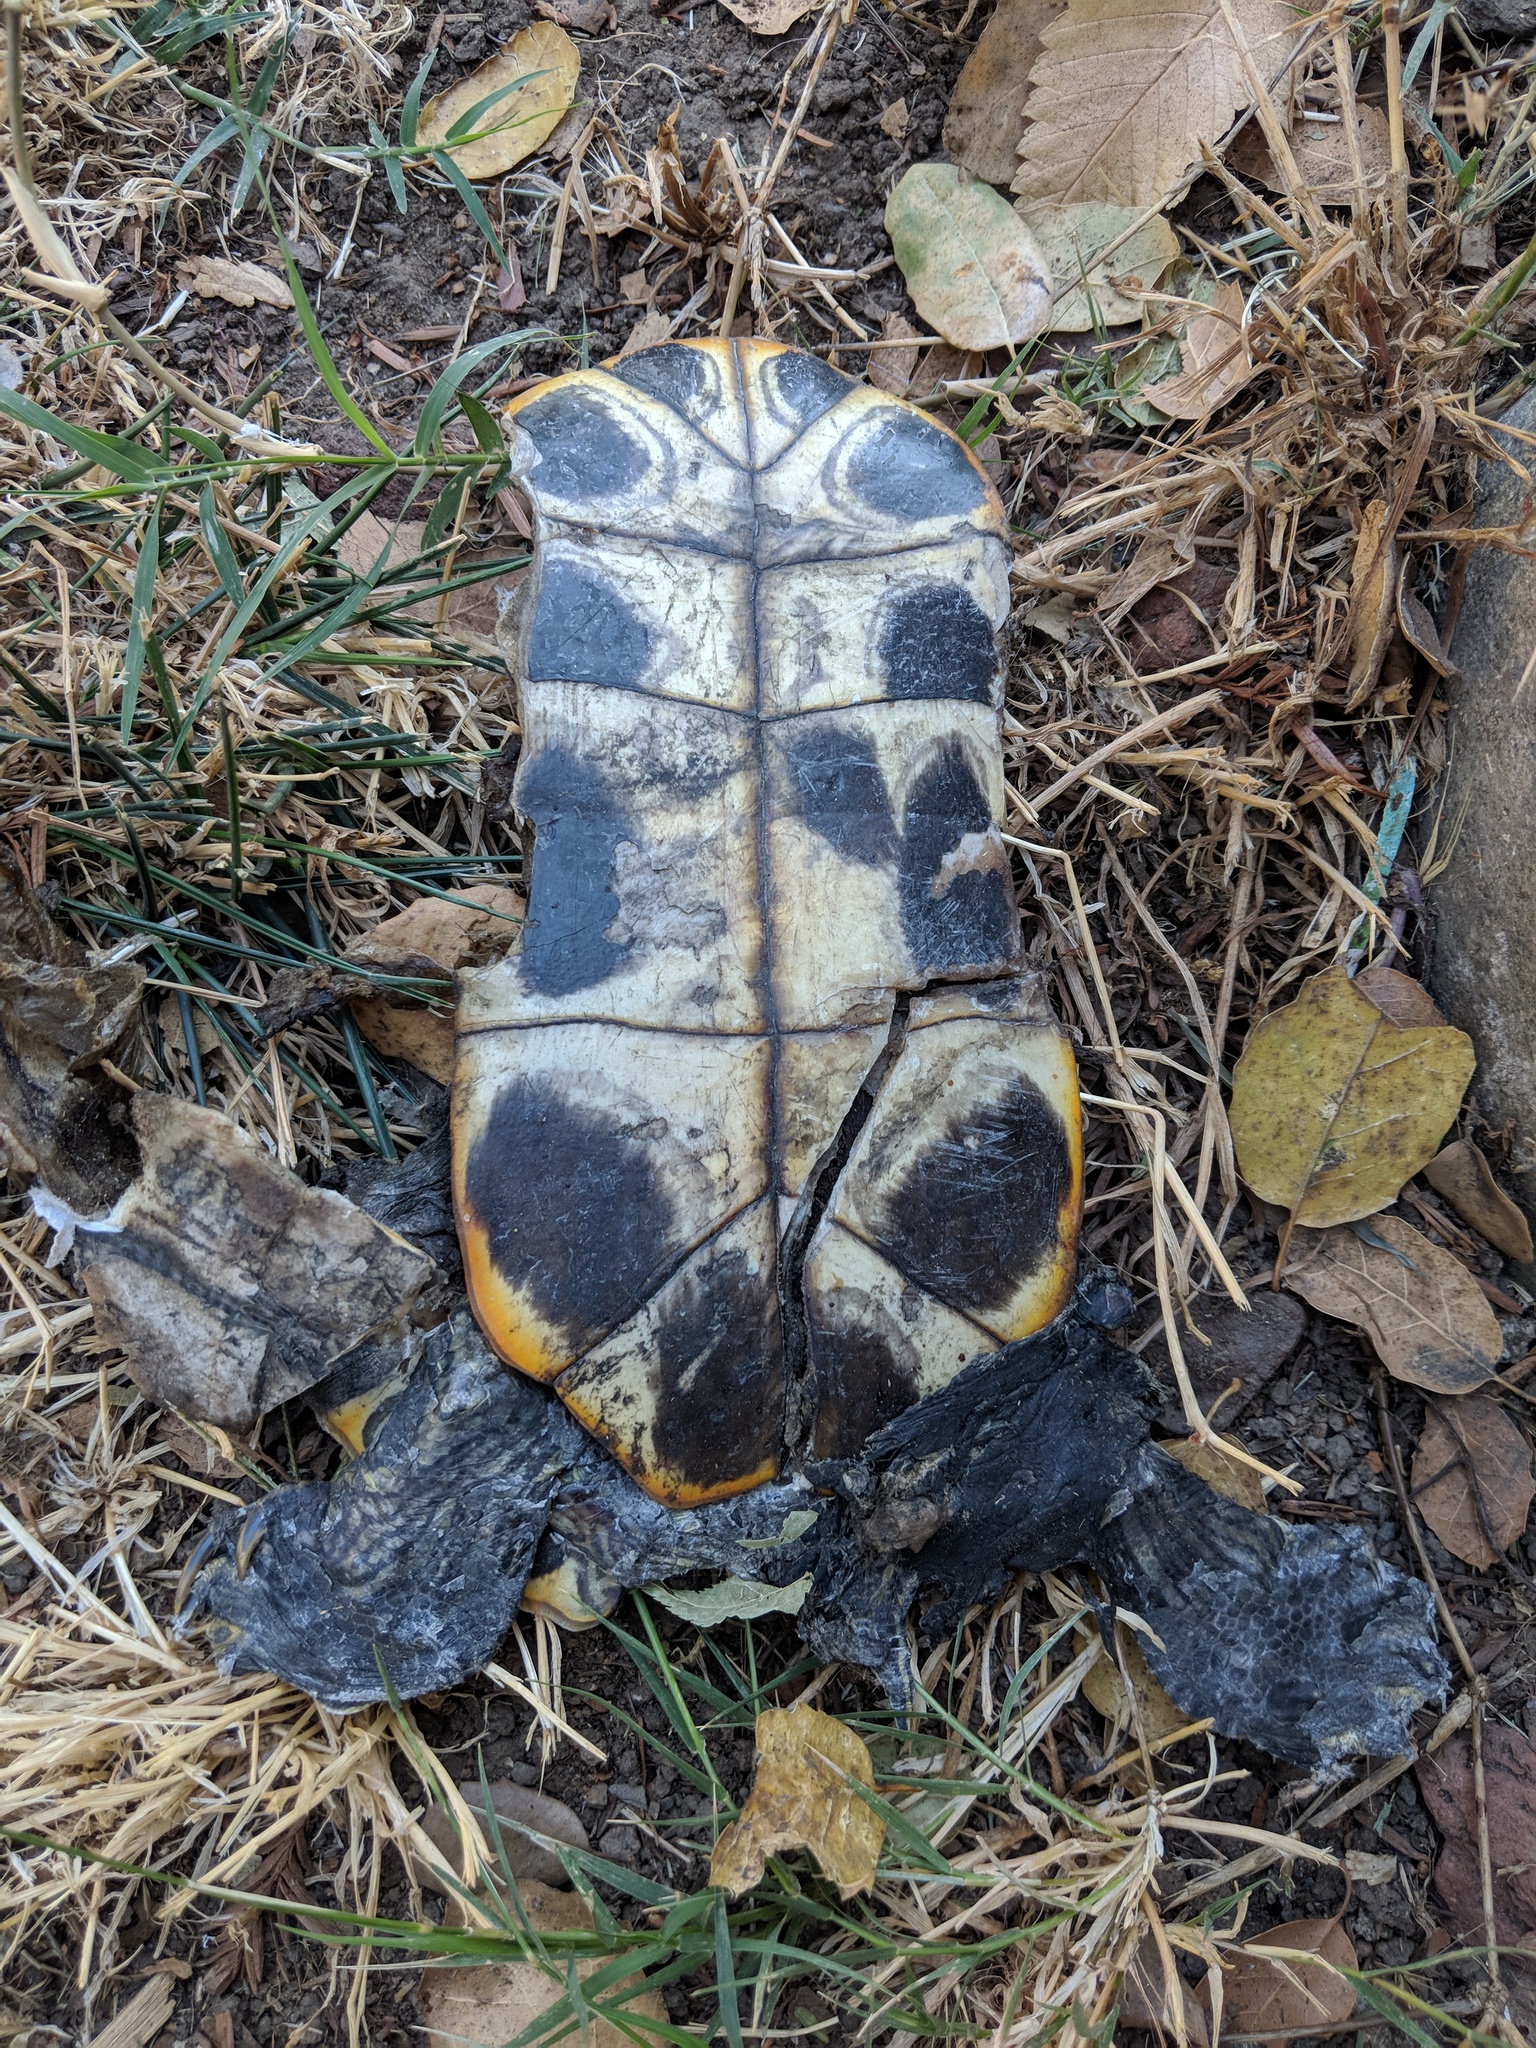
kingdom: Animalia
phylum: Chordata
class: Testudines
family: Emydidae
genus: Trachemys
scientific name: Trachemys scripta
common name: Slider
